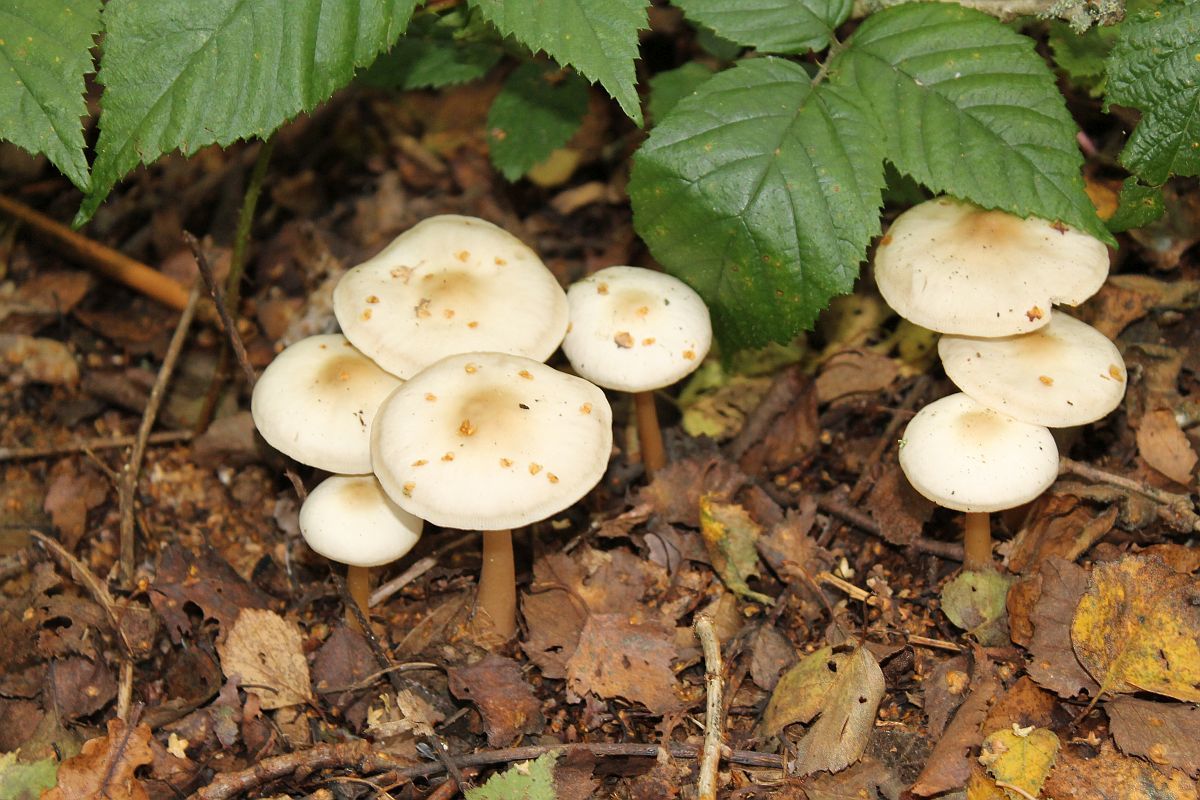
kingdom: Fungi
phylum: Basidiomycota
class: Agaricomycetes
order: Agaricales
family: Omphalotaceae
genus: Rhodocollybia
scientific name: Rhodocollybia asema
